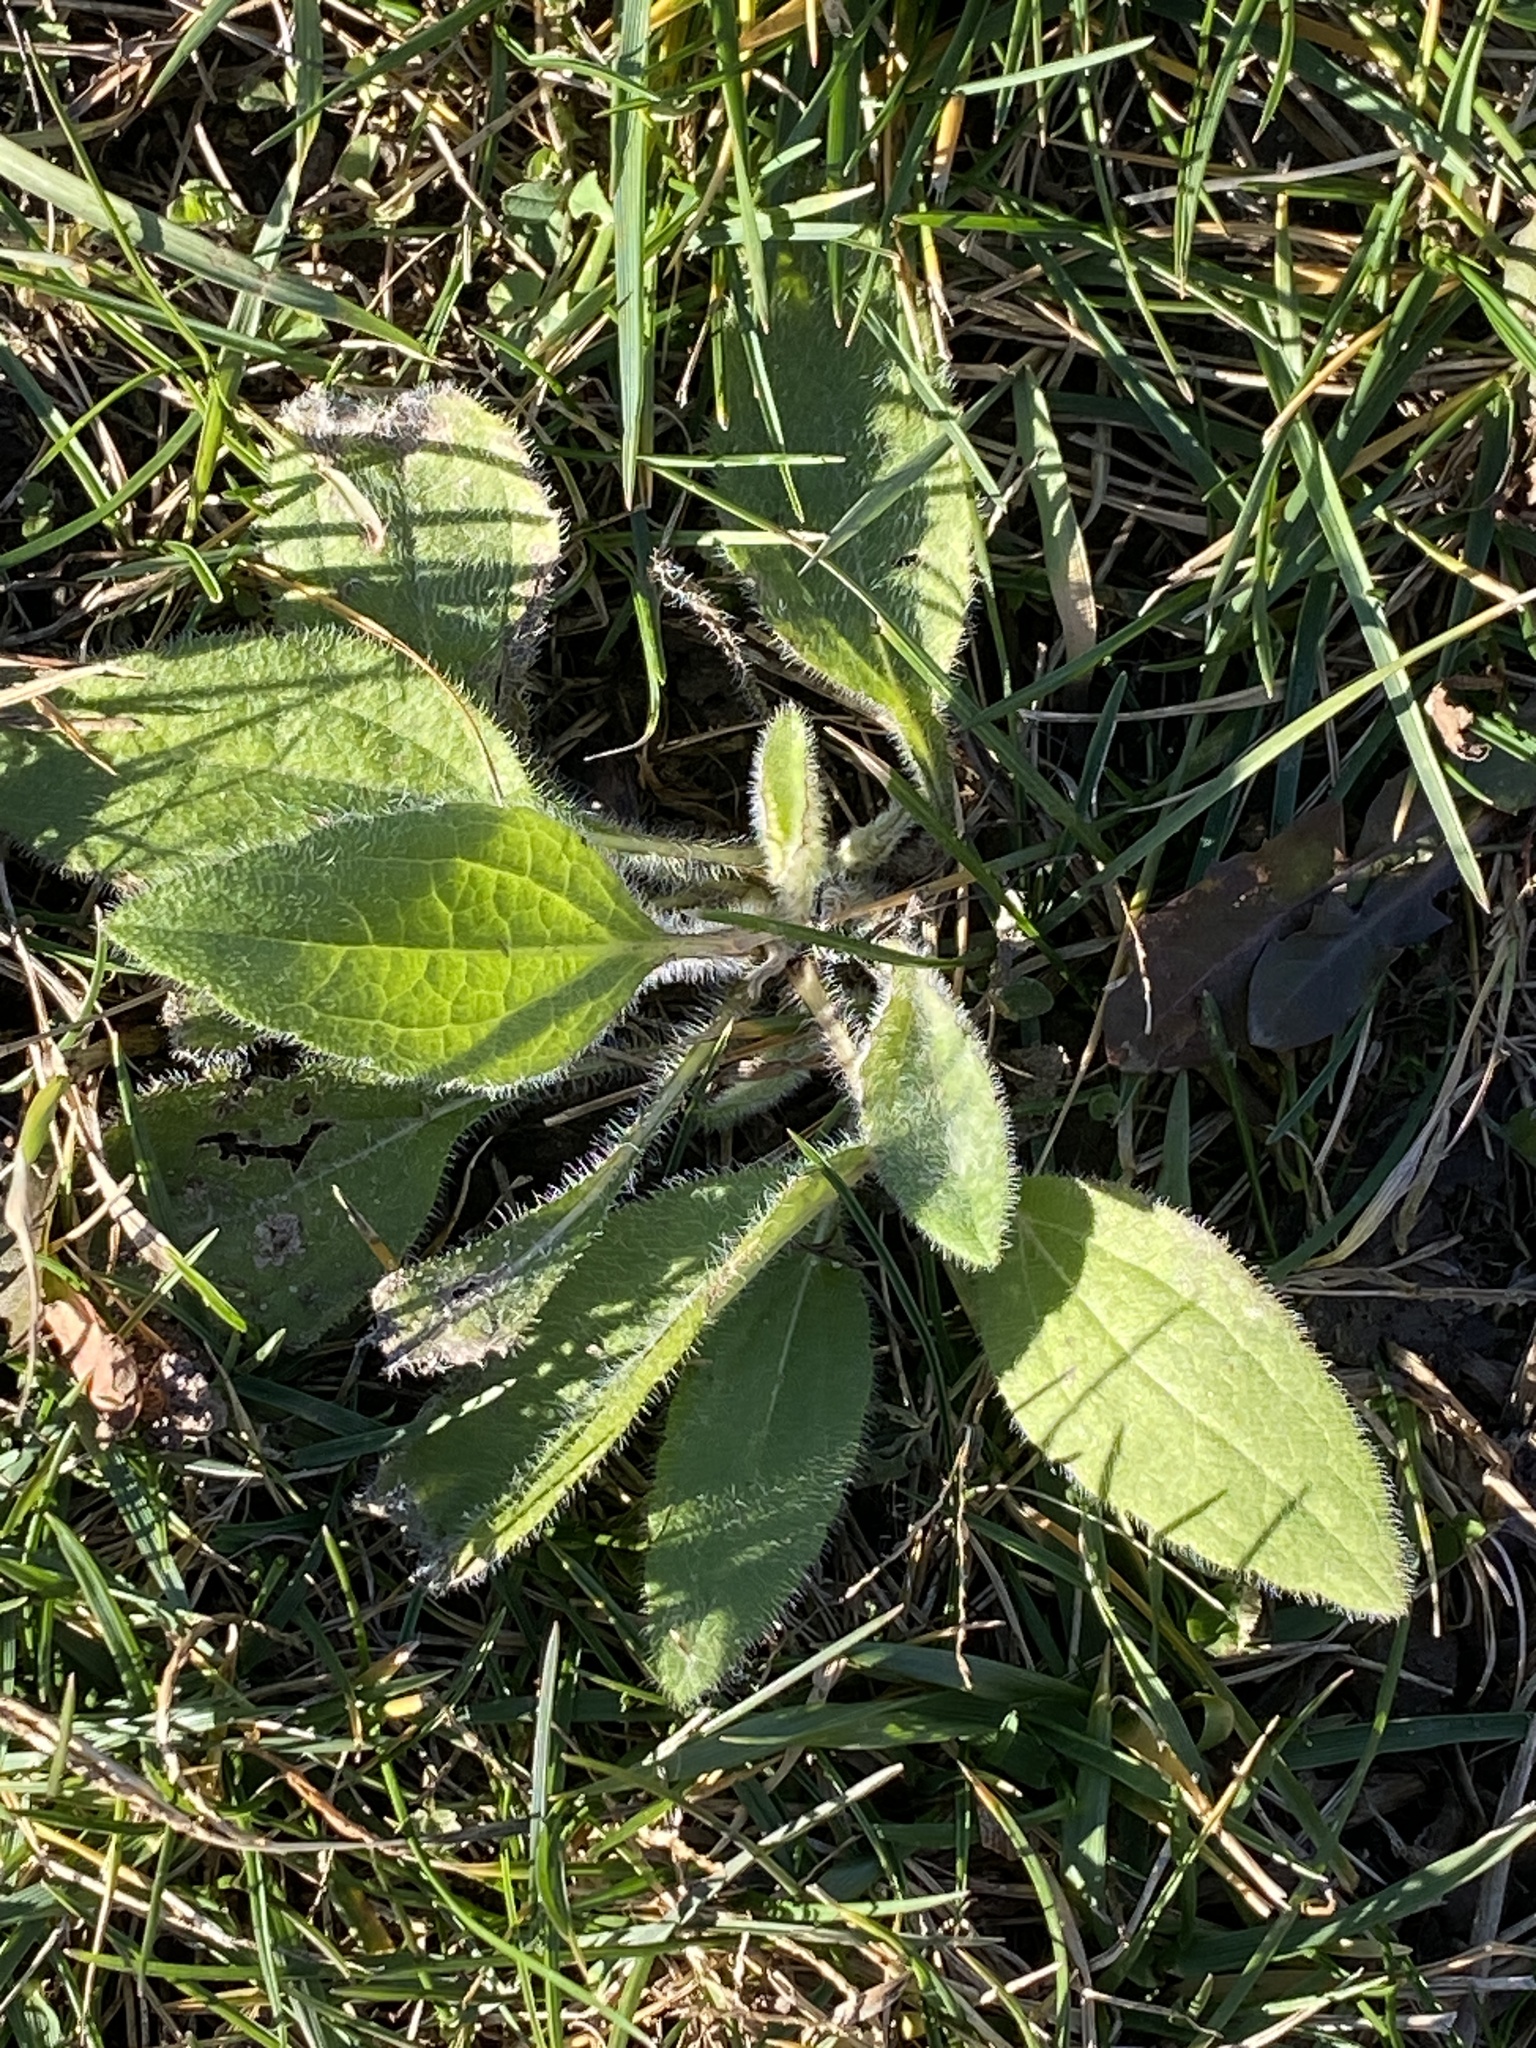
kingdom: Plantae
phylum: Tracheophyta
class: Magnoliopsida
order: Asterales
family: Asteraceae
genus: Rudbeckia
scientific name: Rudbeckia hirta
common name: Black-eyed-susan
